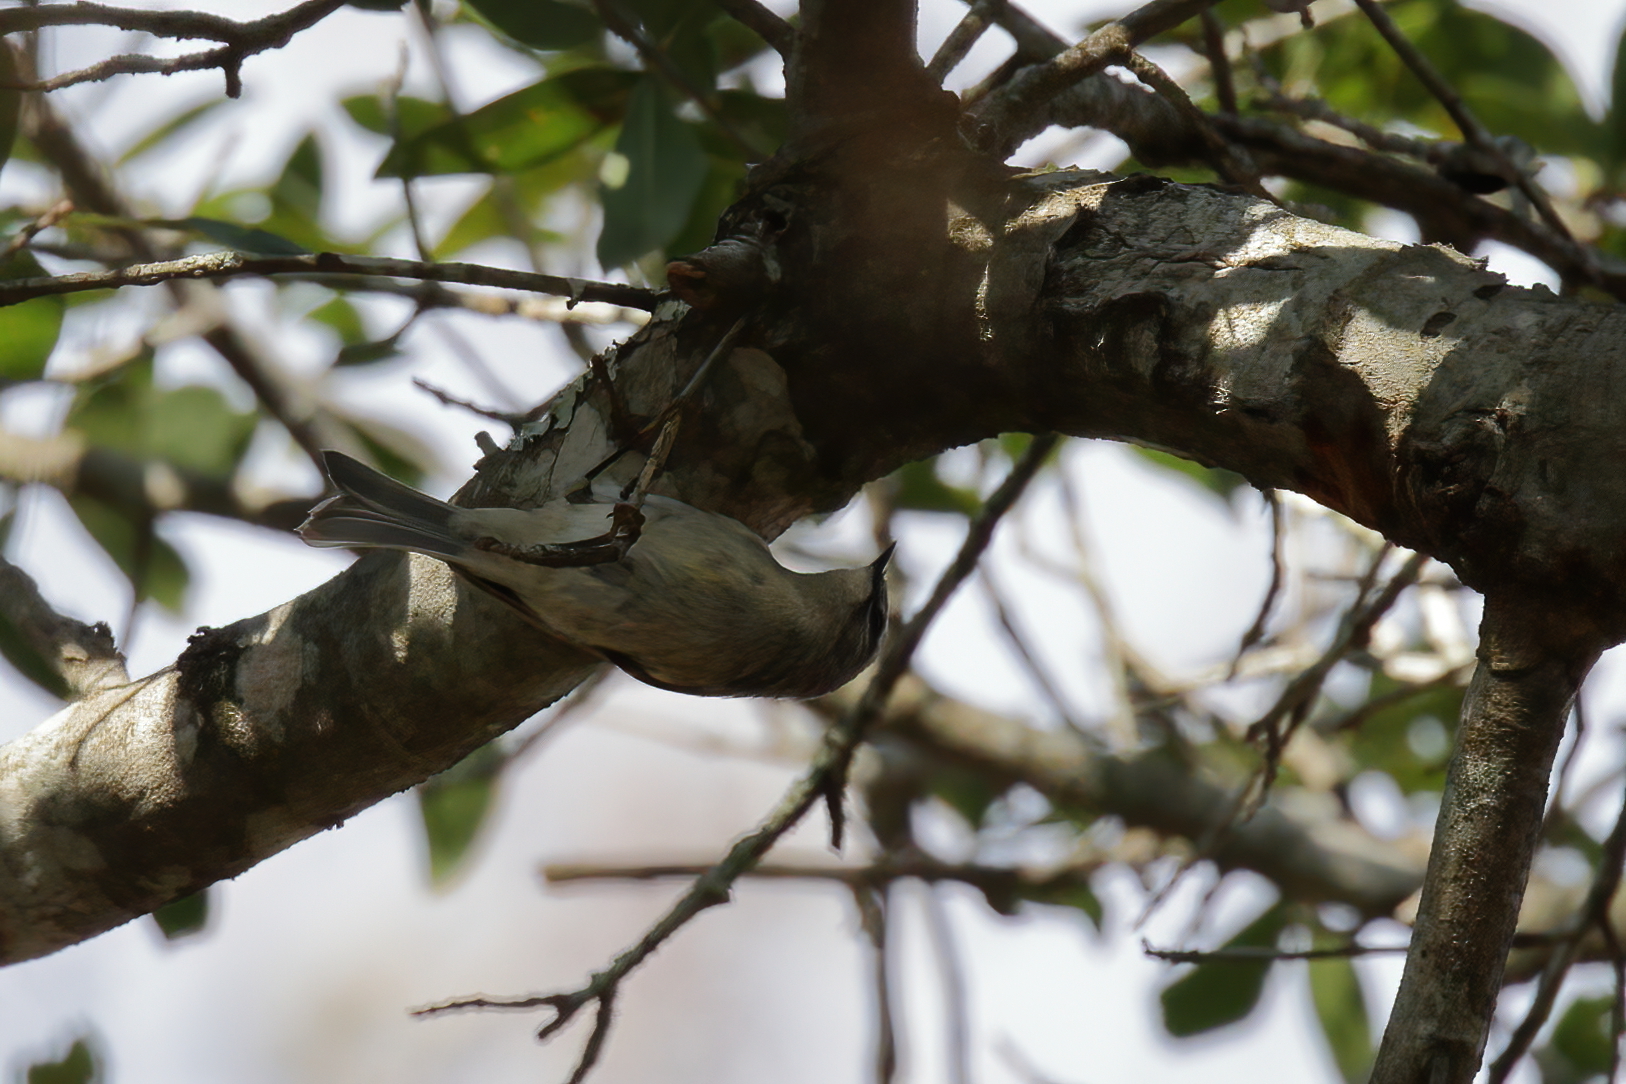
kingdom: Animalia
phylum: Chordata
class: Aves
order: Passeriformes
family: Parulidae
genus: Setophaga
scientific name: Setophaga coronata
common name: Myrtle warbler
